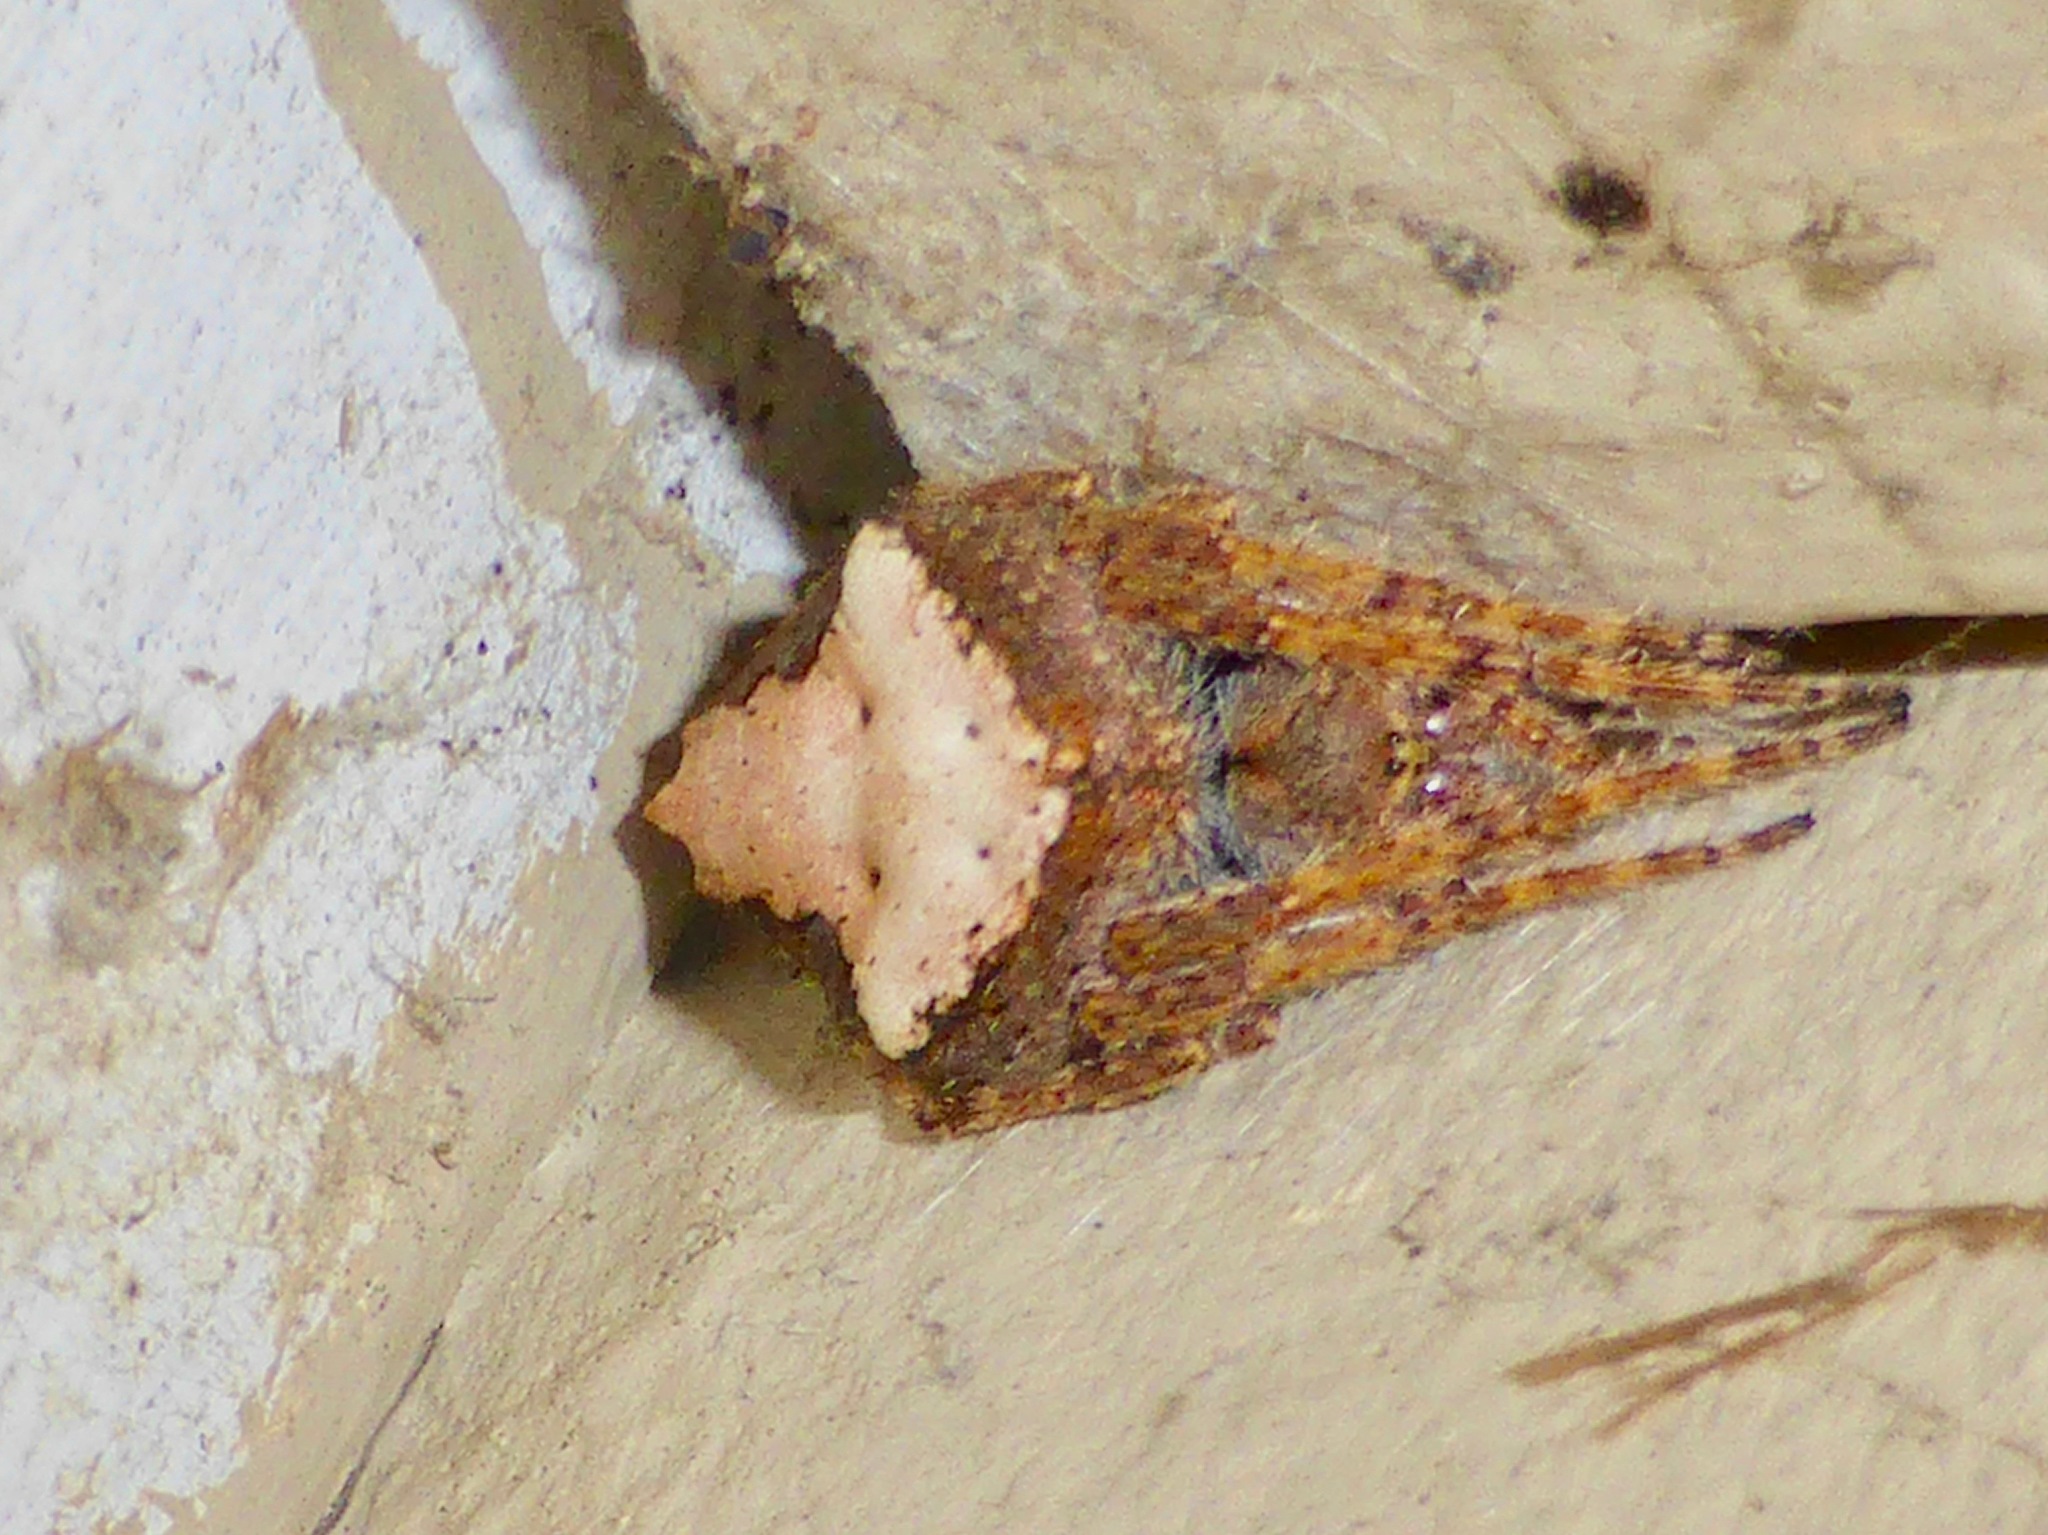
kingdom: Animalia
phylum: Arthropoda
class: Arachnida
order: Araneae
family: Araneidae
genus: Eriophora
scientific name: Eriophora pustulosa
